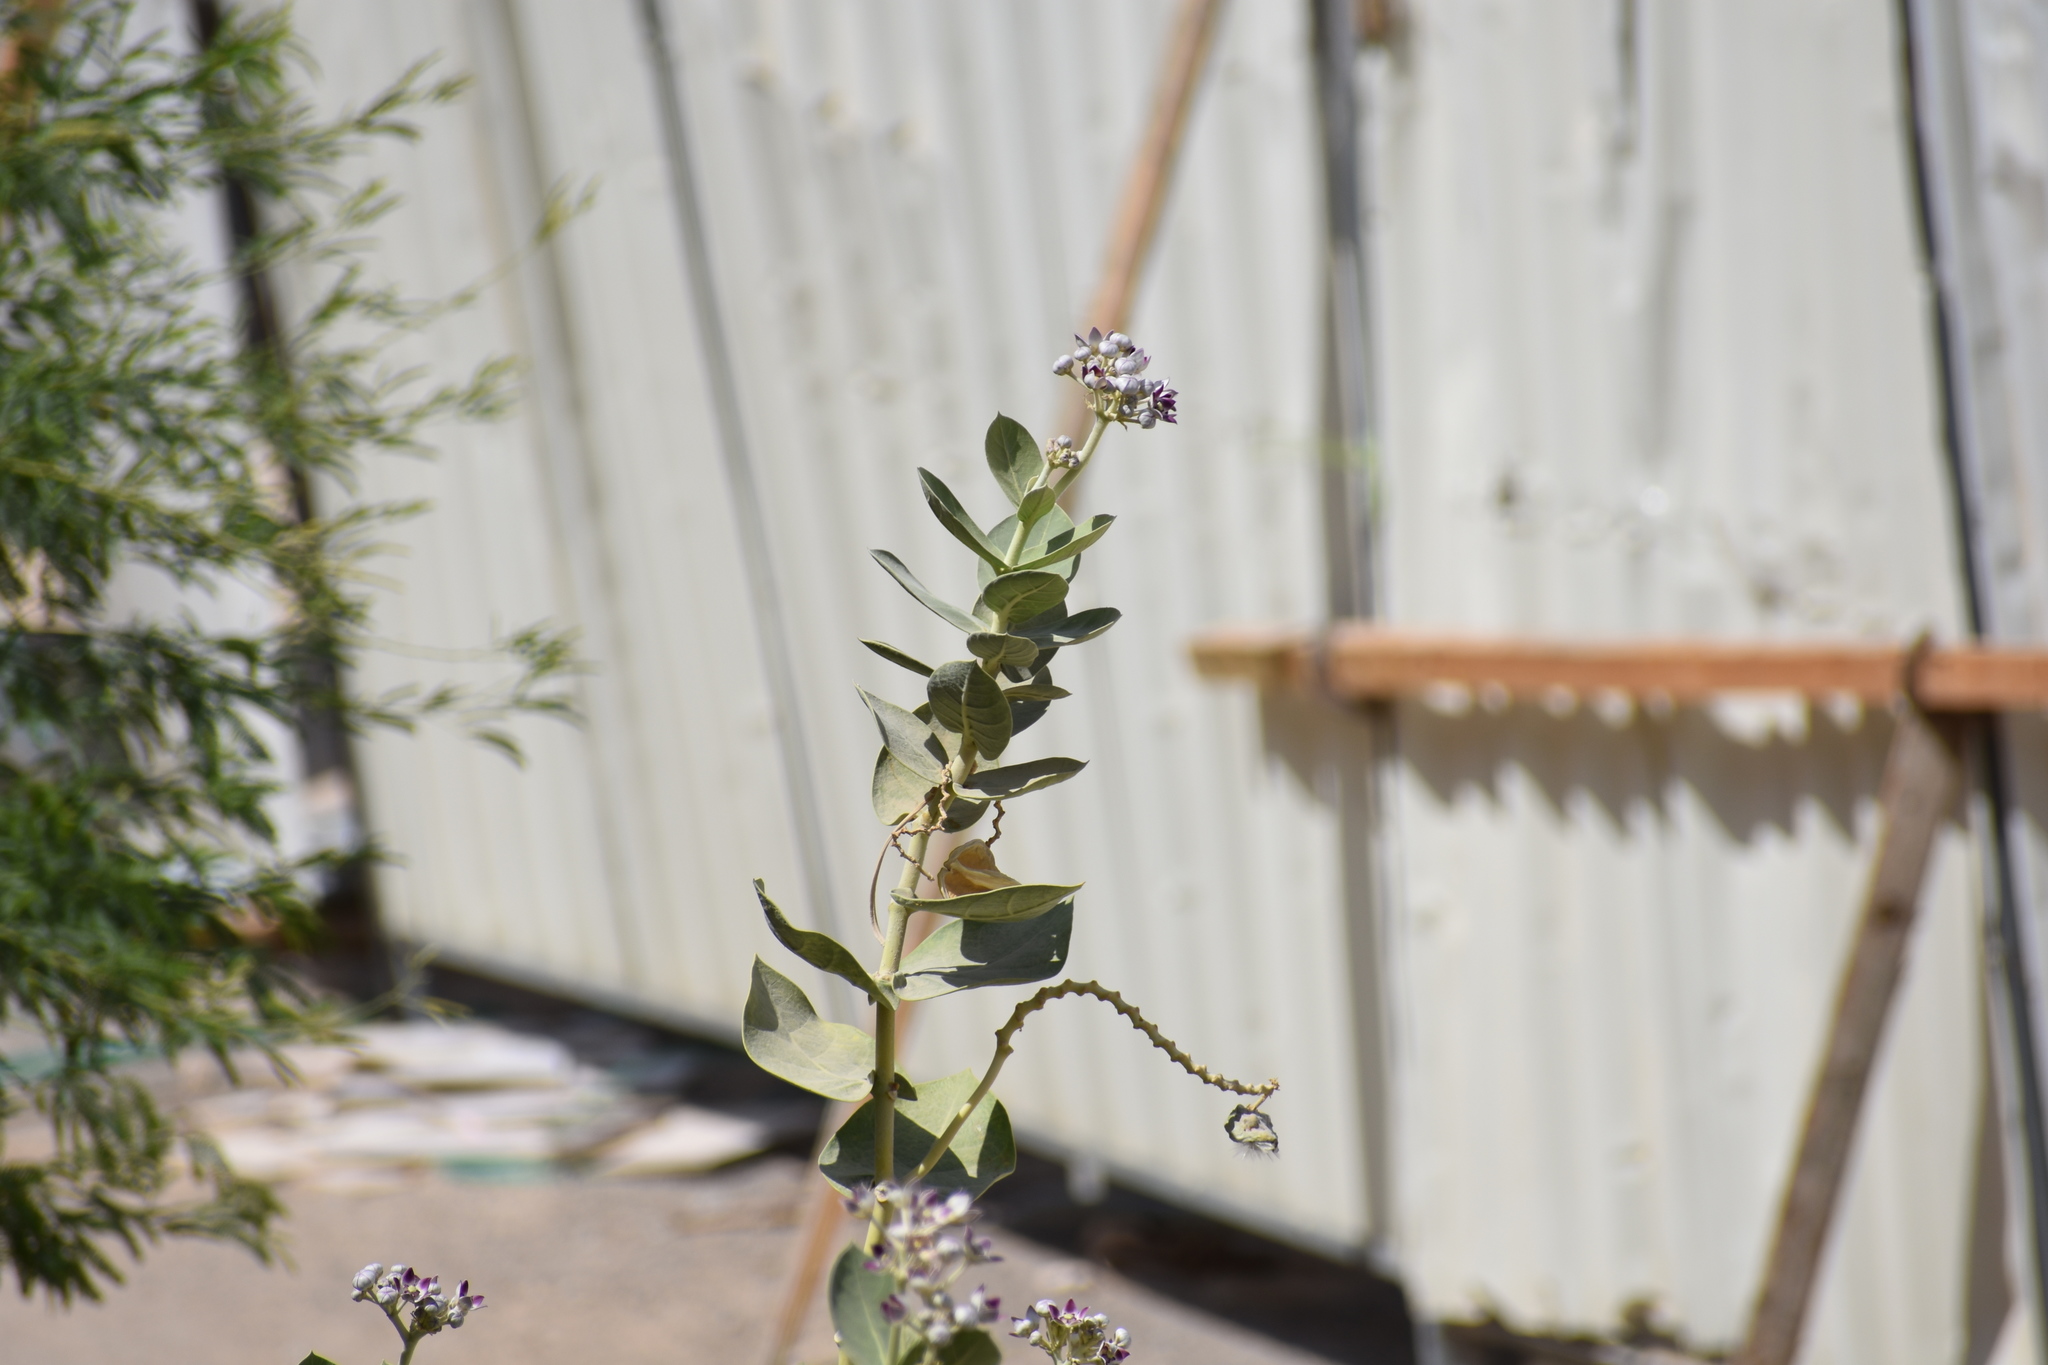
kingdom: Plantae
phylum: Tracheophyta
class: Magnoliopsida
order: Gentianales
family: Apocynaceae
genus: Calotropis
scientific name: Calotropis procera
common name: Roostertree
